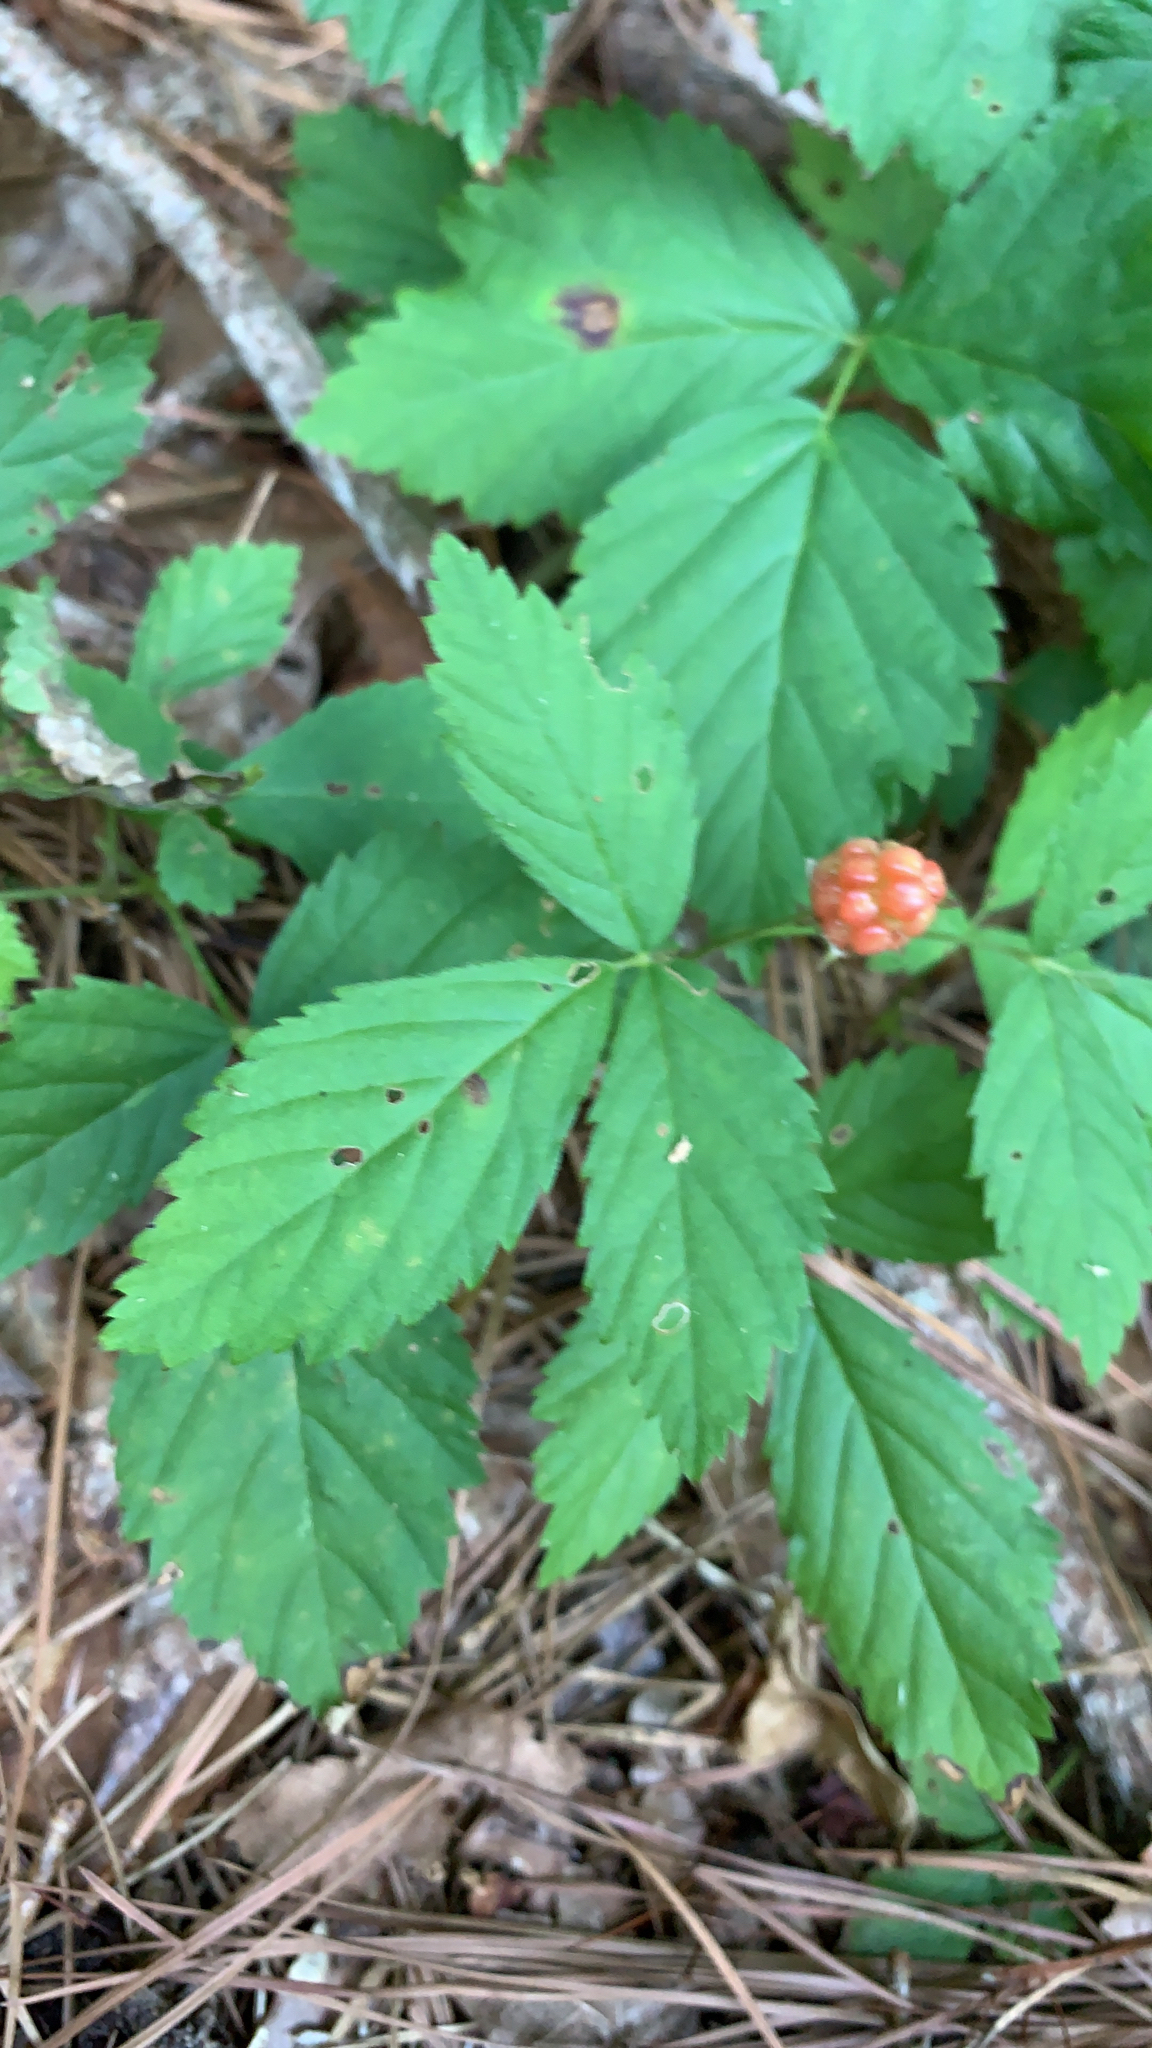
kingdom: Plantae
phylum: Tracheophyta
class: Magnoliopsida
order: Rosales
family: Rosaceae
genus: Rubus
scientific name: Rubus
